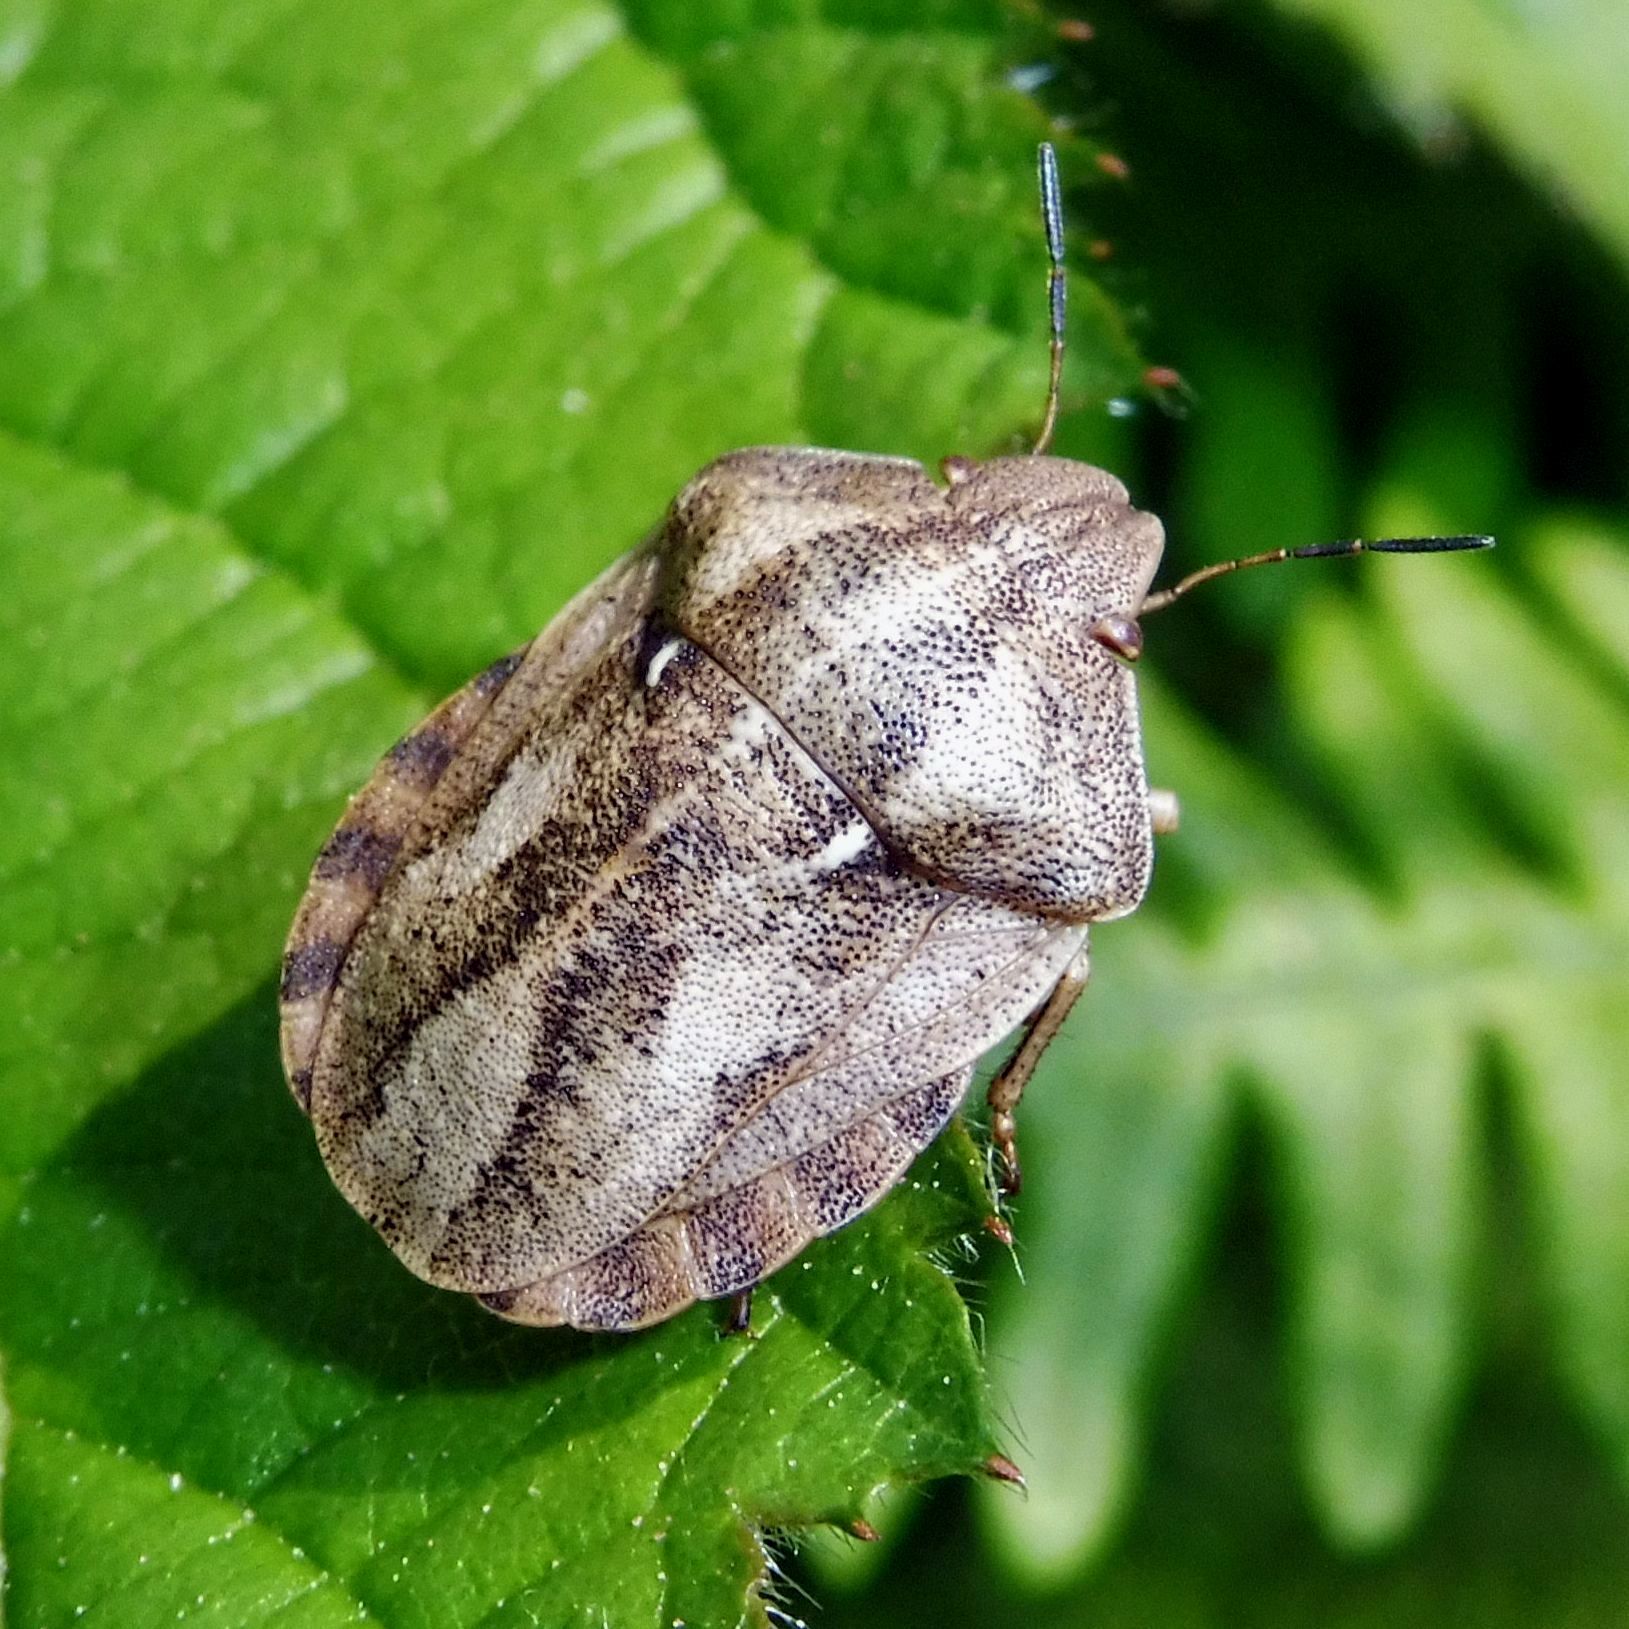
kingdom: Animalia
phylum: Arthropoda
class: Insecta
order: Hemiptera
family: Scutelleridae
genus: Eurygaster
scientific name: Eurygaster testudinaria
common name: Tortoise bug
